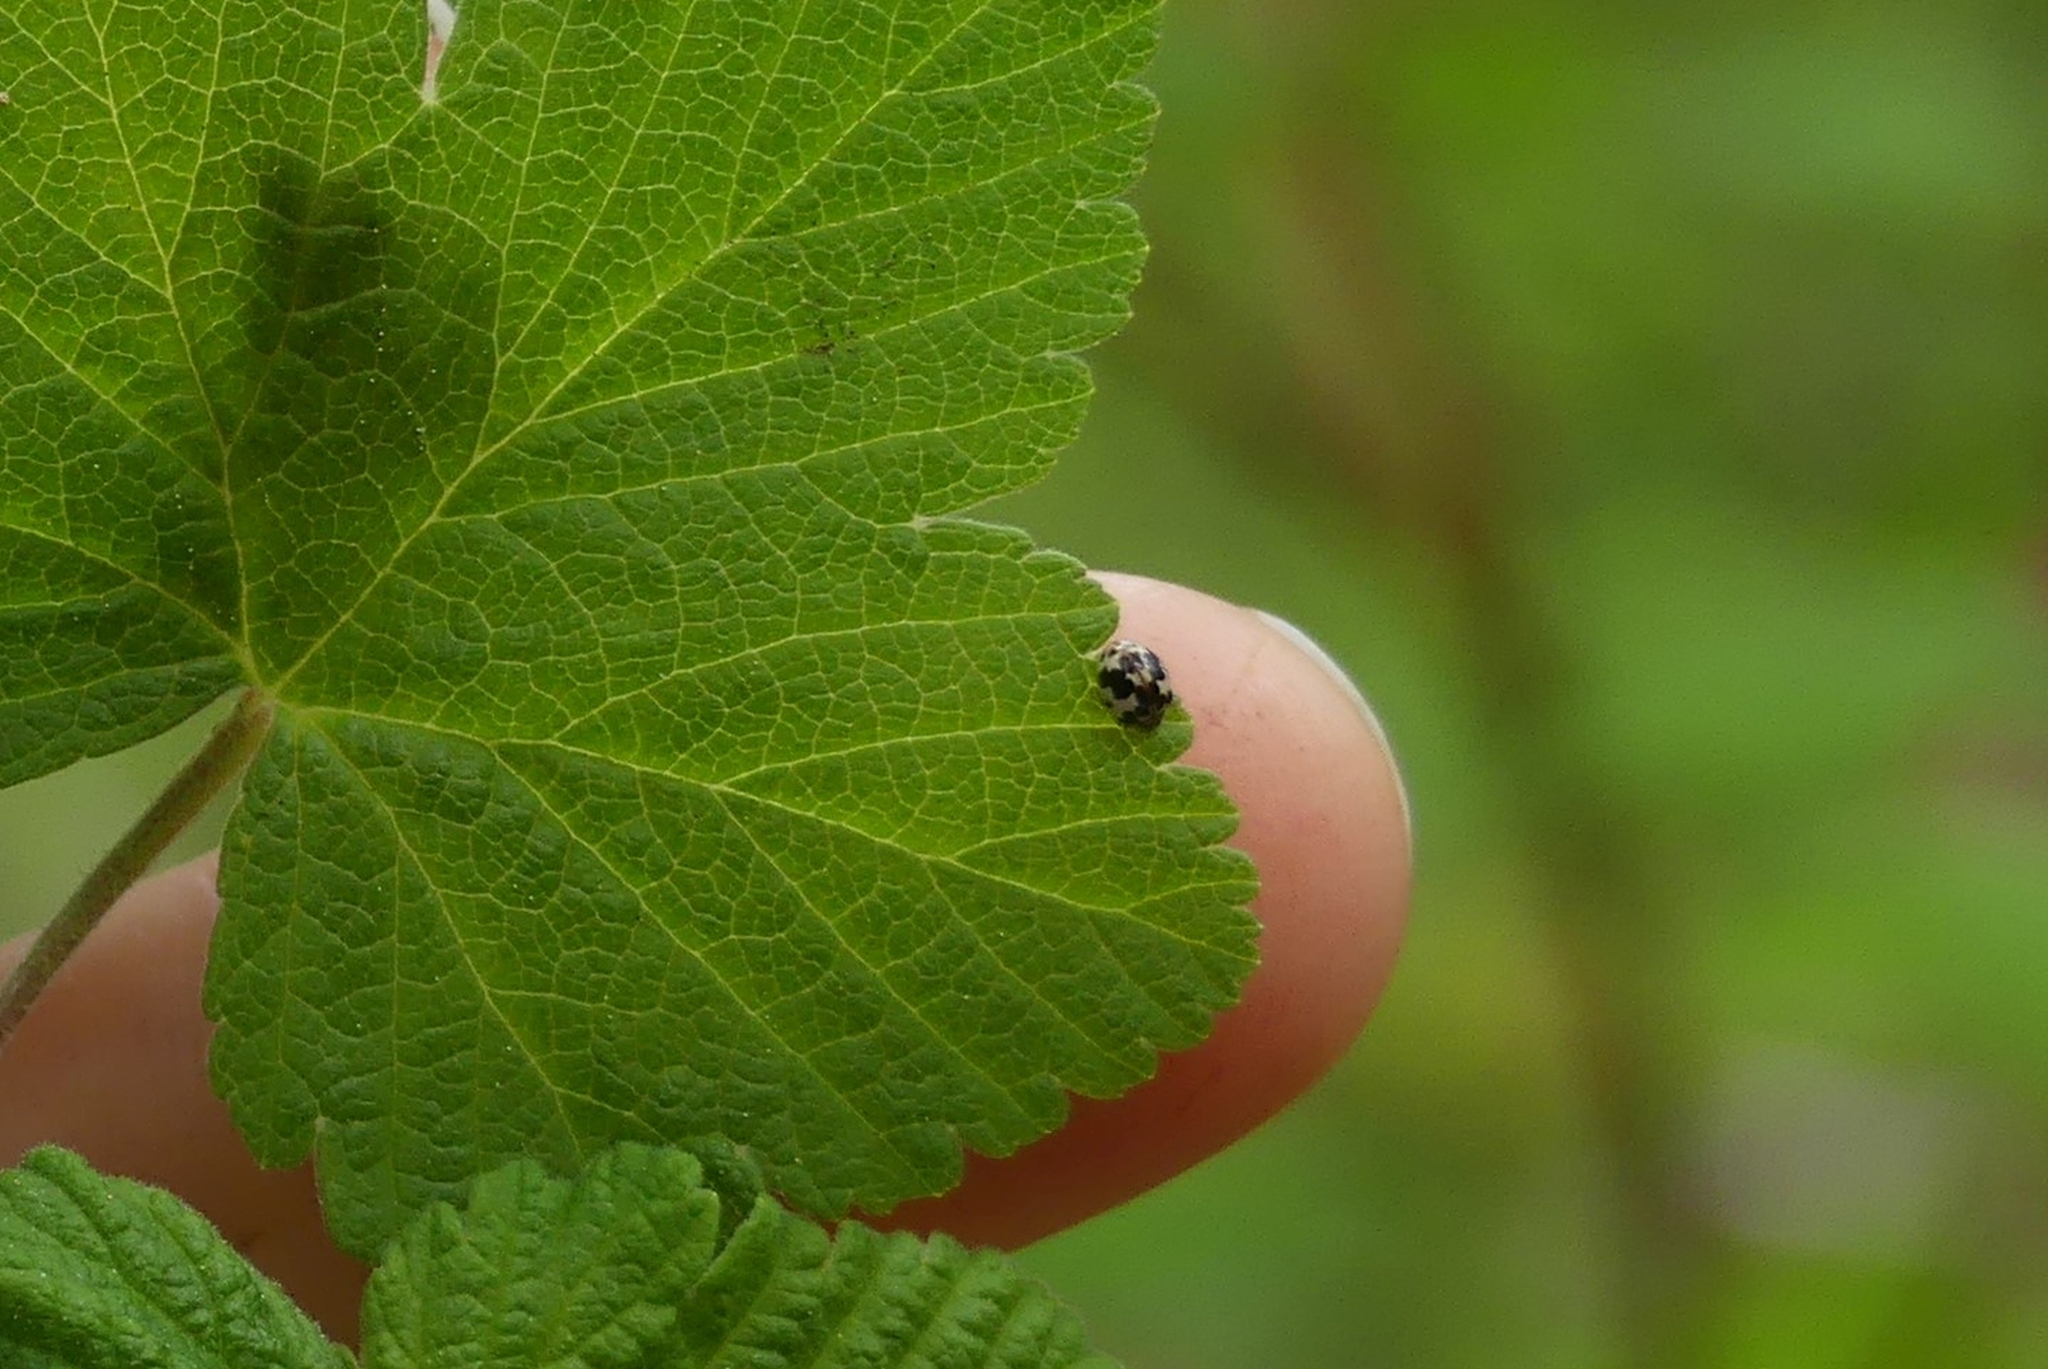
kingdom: Animalia
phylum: Arthropoda
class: Insecta
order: Coleoptera
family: Coccinellidae
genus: Psyllobora
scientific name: Psyllobora borealis
